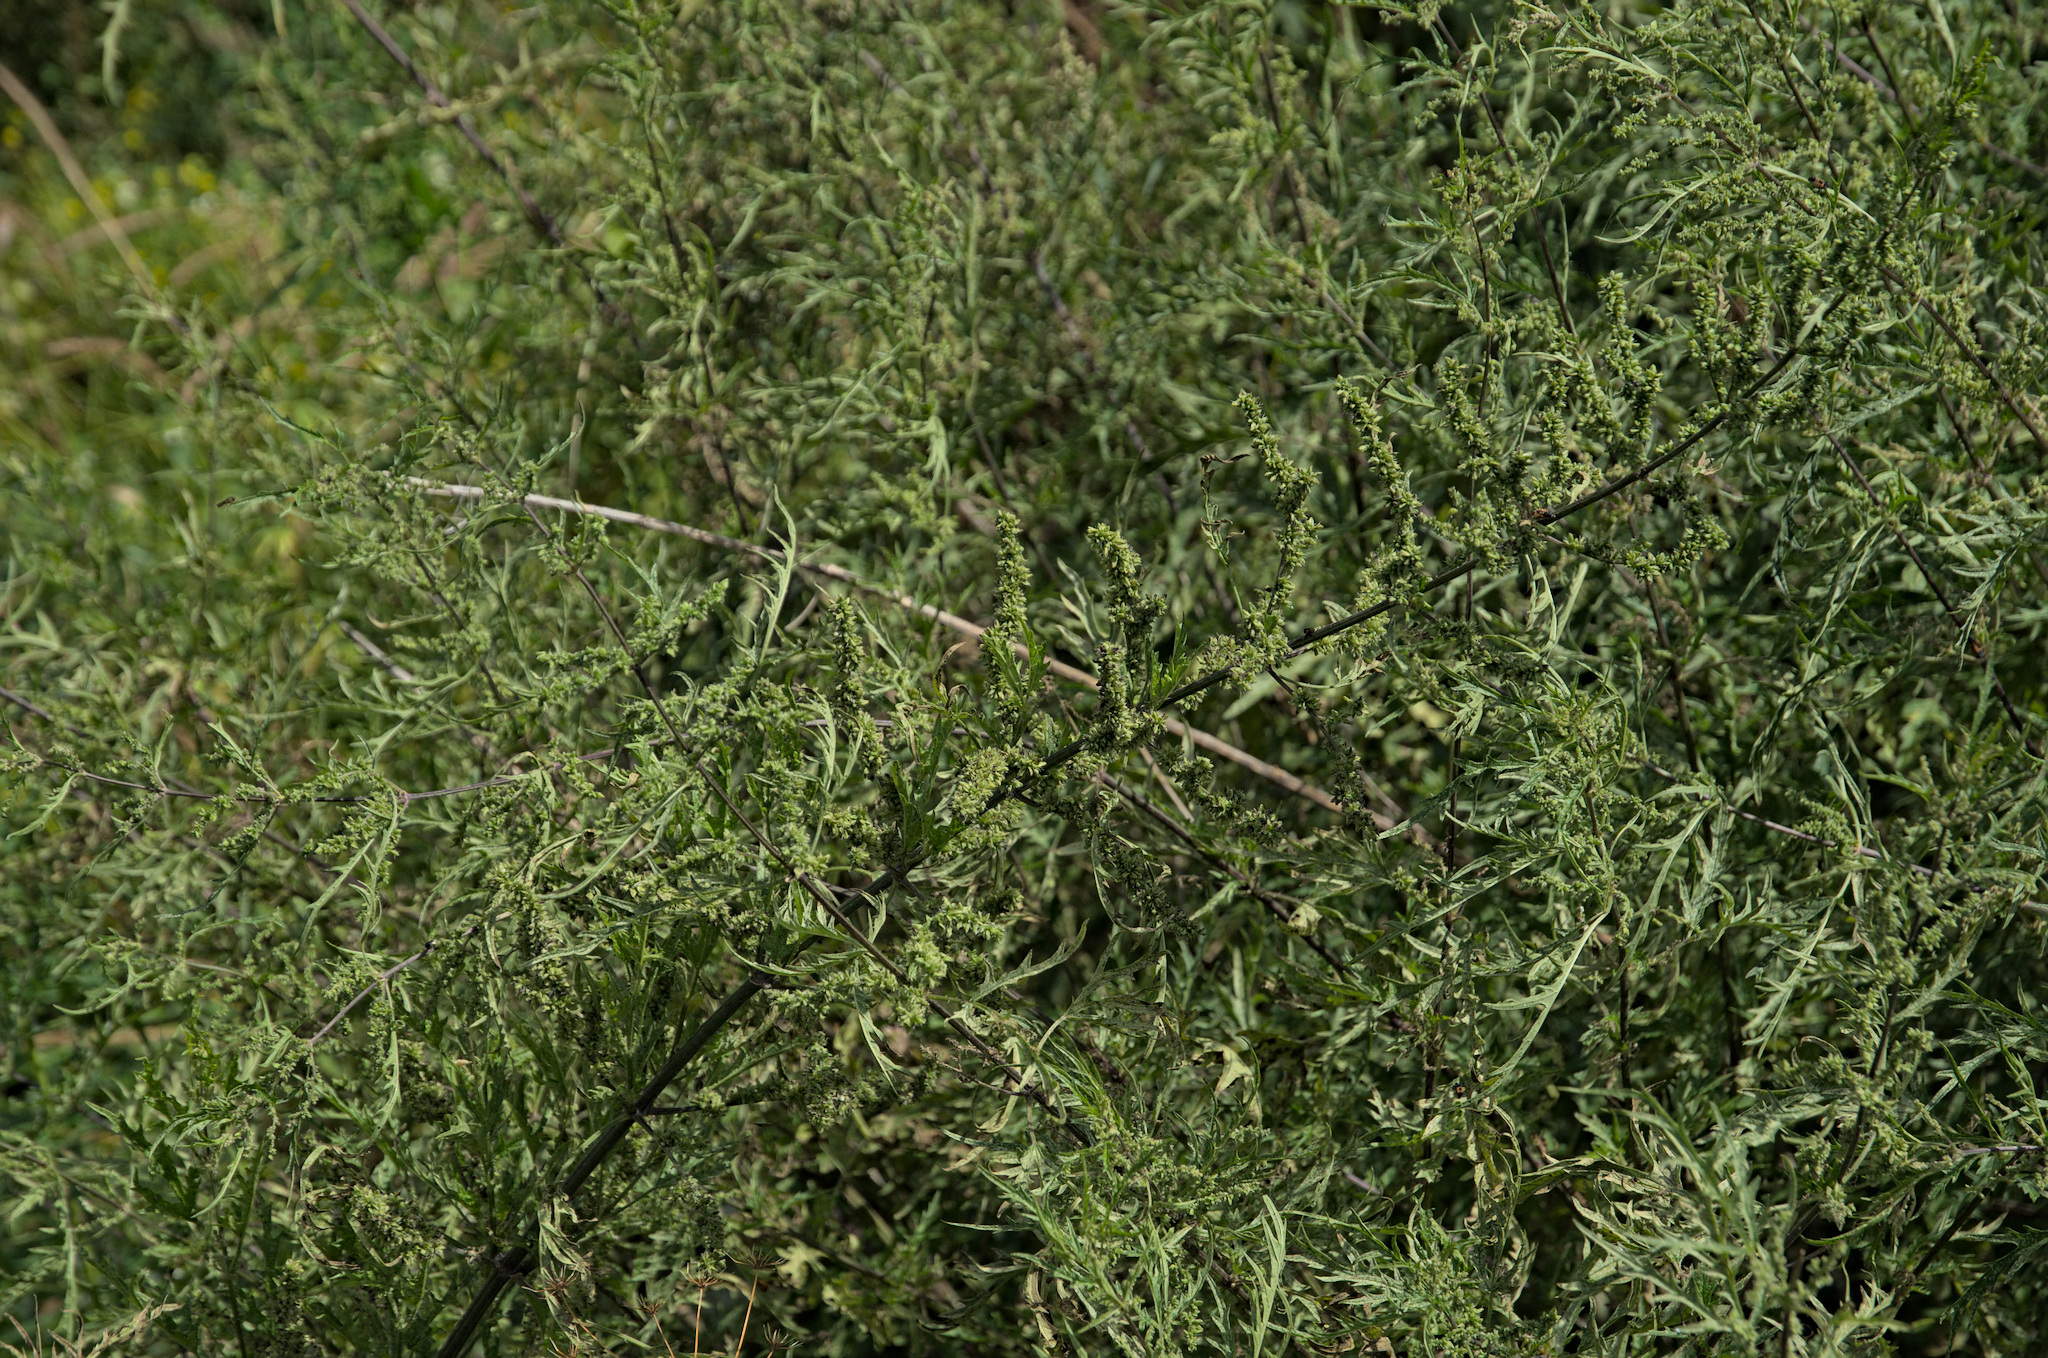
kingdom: Plantae
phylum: Tracheophyta
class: Magnoliopsida
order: Rosales
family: Urticaceae
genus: Urtica
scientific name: Urtica cannabina
